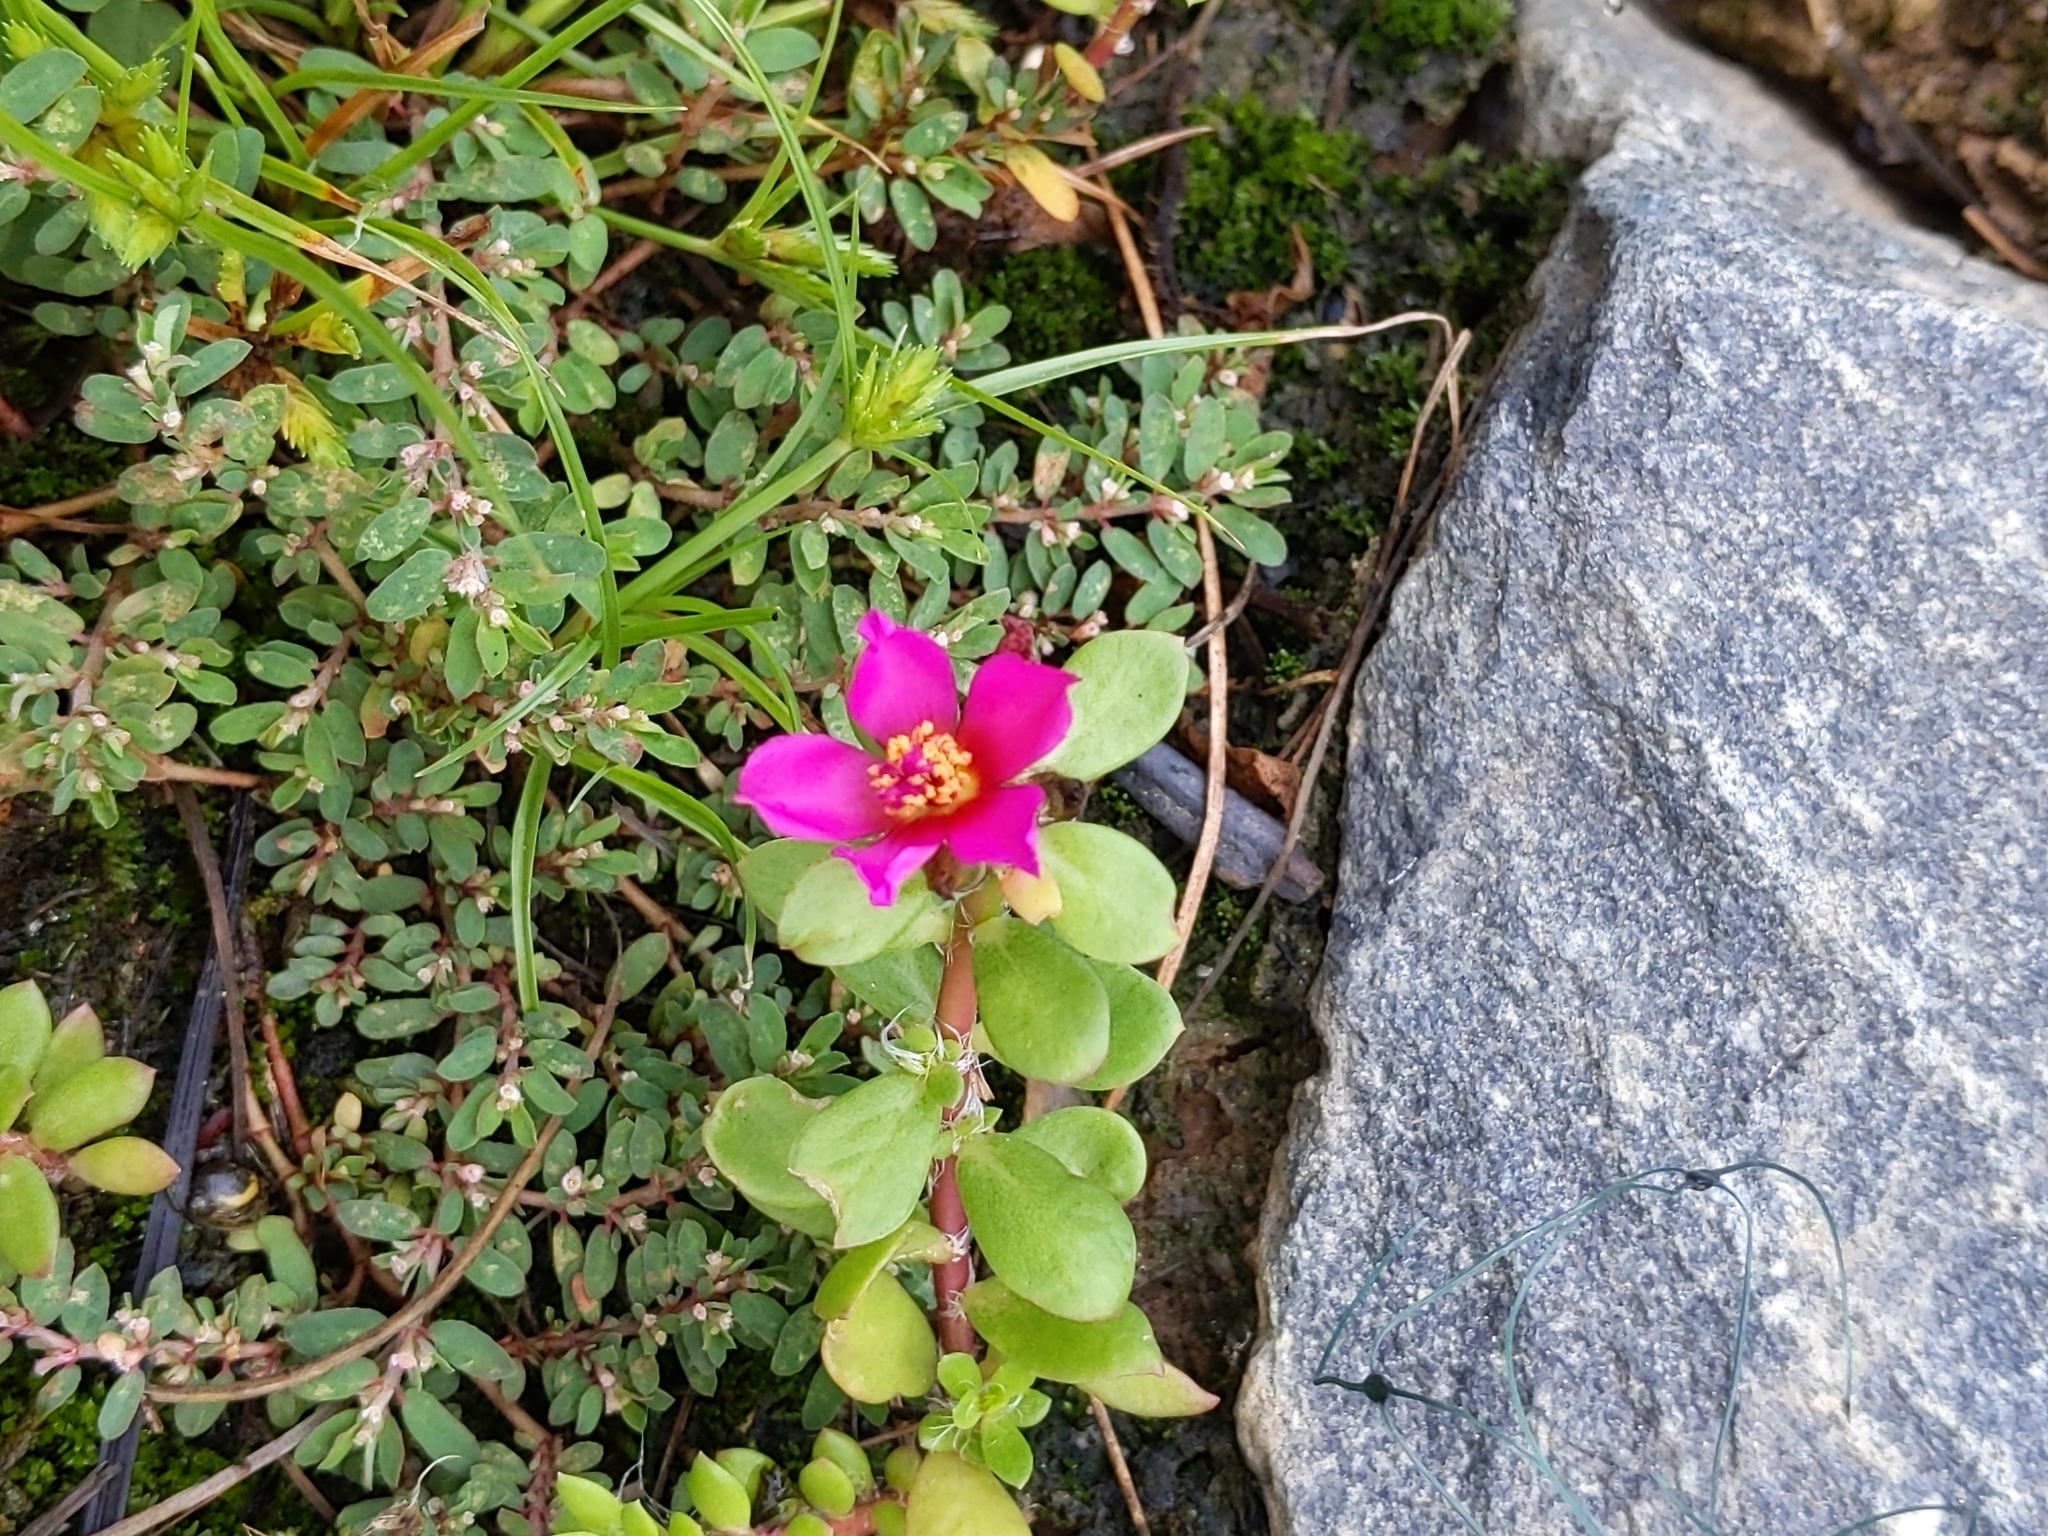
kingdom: Plantae
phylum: Tracheophyta
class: Magnoliopsida
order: Caryophyllales
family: Portulacaceae
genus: Portulaca
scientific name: Portulaca amilis
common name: Paraguayan purslane
